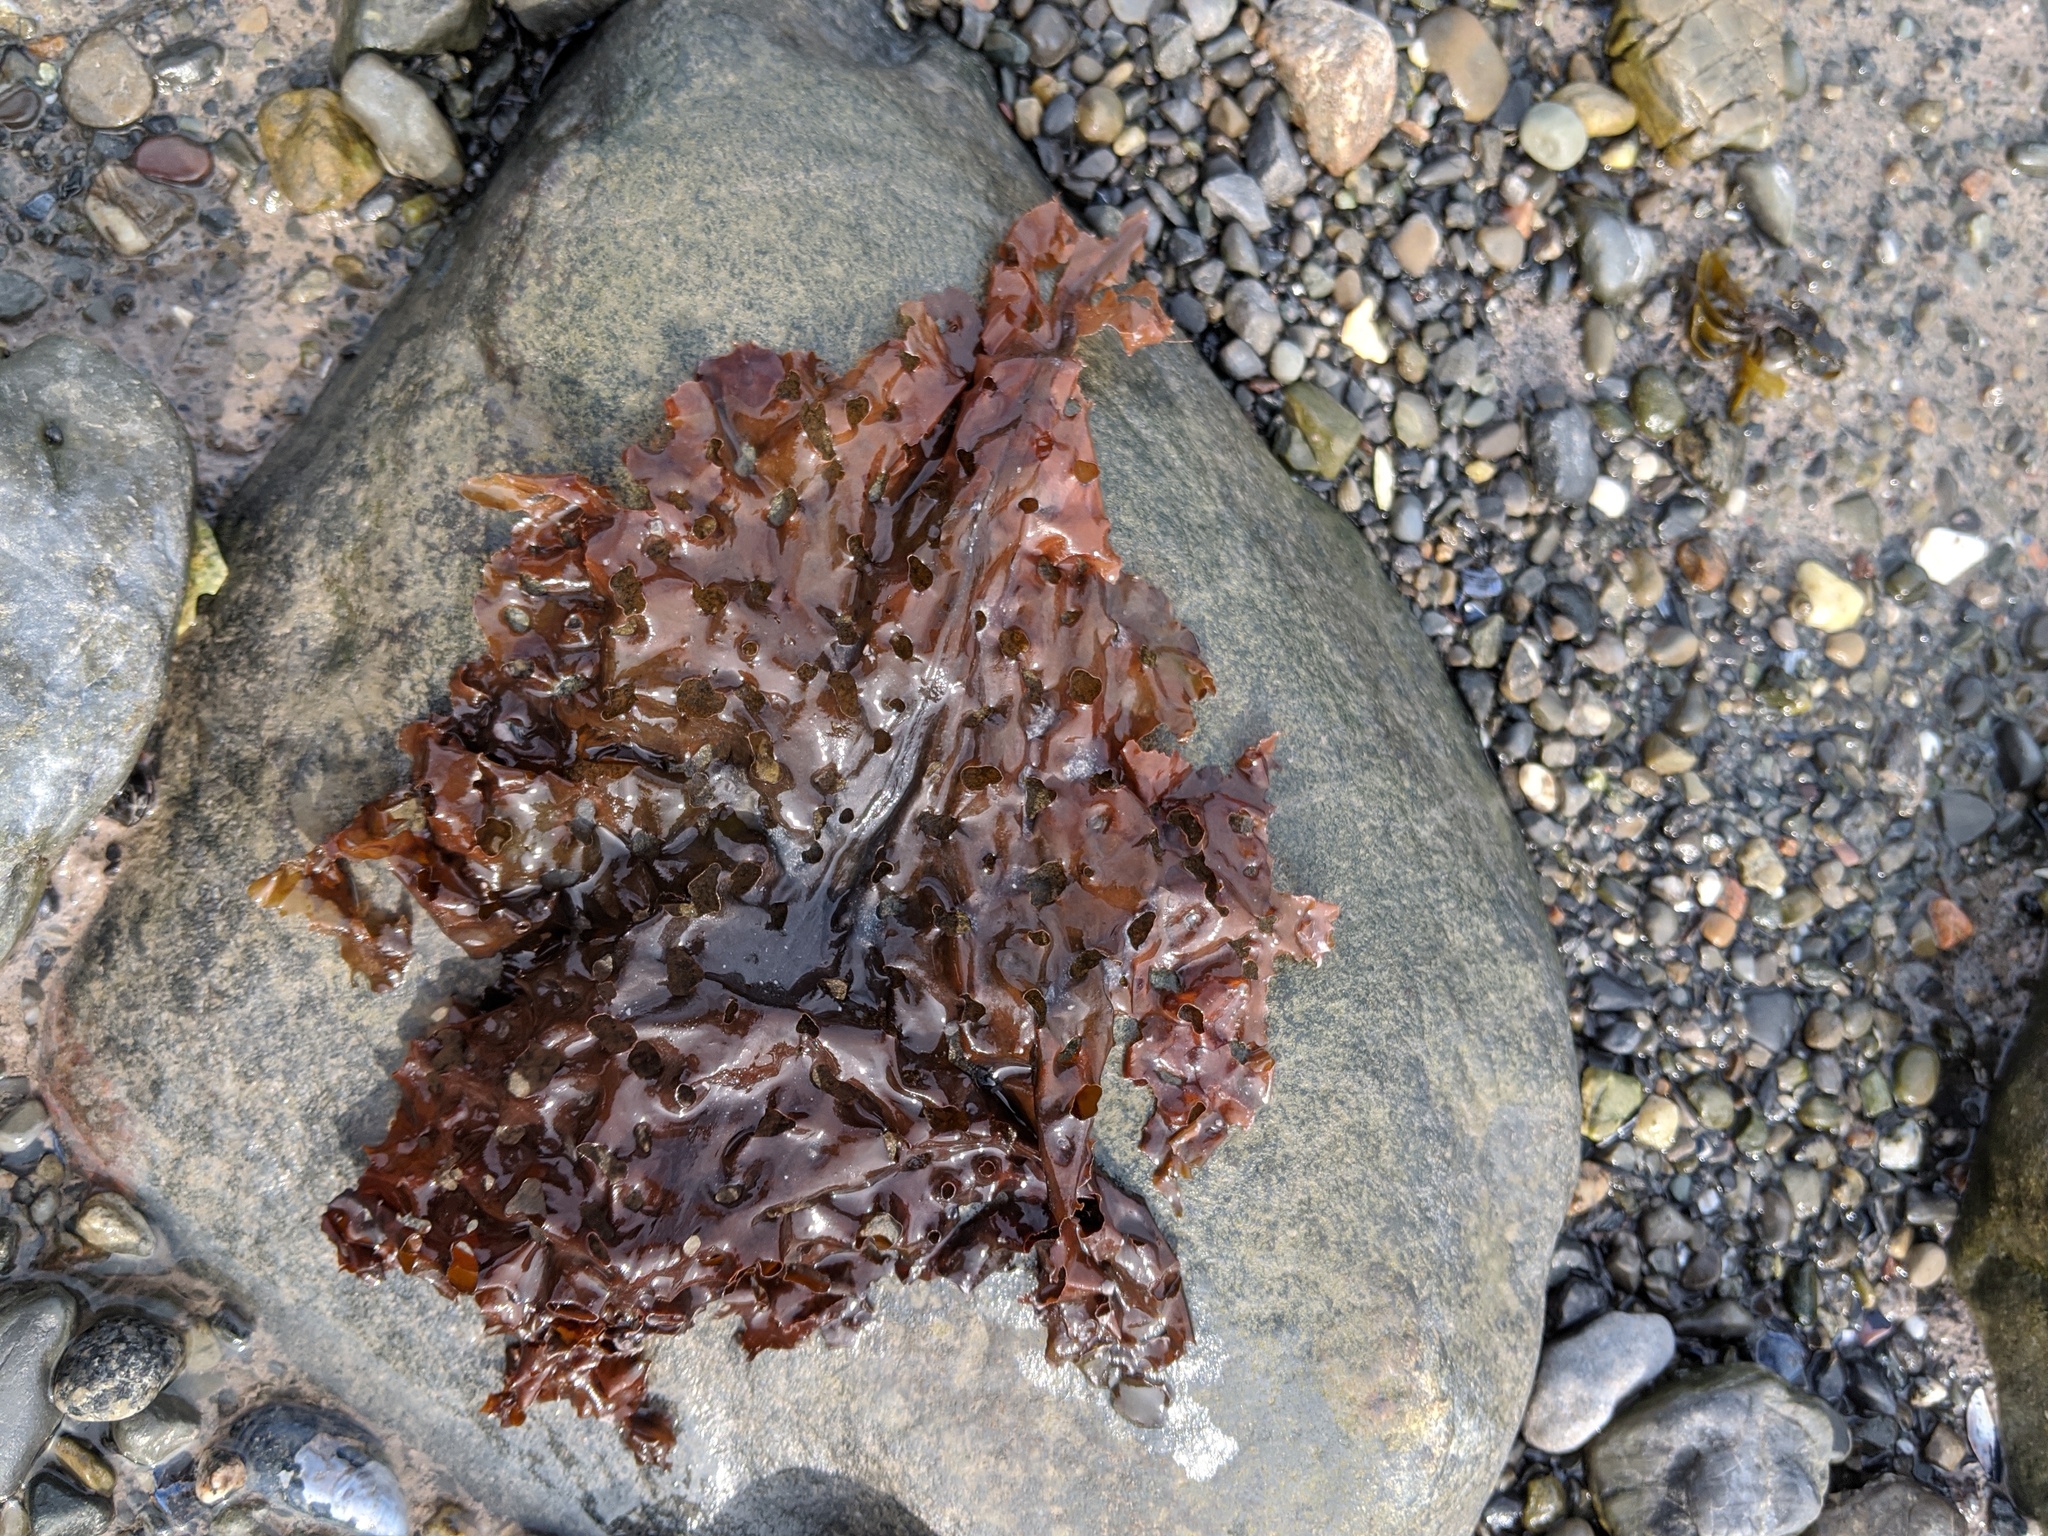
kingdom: Chromista
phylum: Ochrophyta
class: Phaeophyceae
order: Laminariales
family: Costariaceae
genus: Agarum
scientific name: Agarum clathratum
